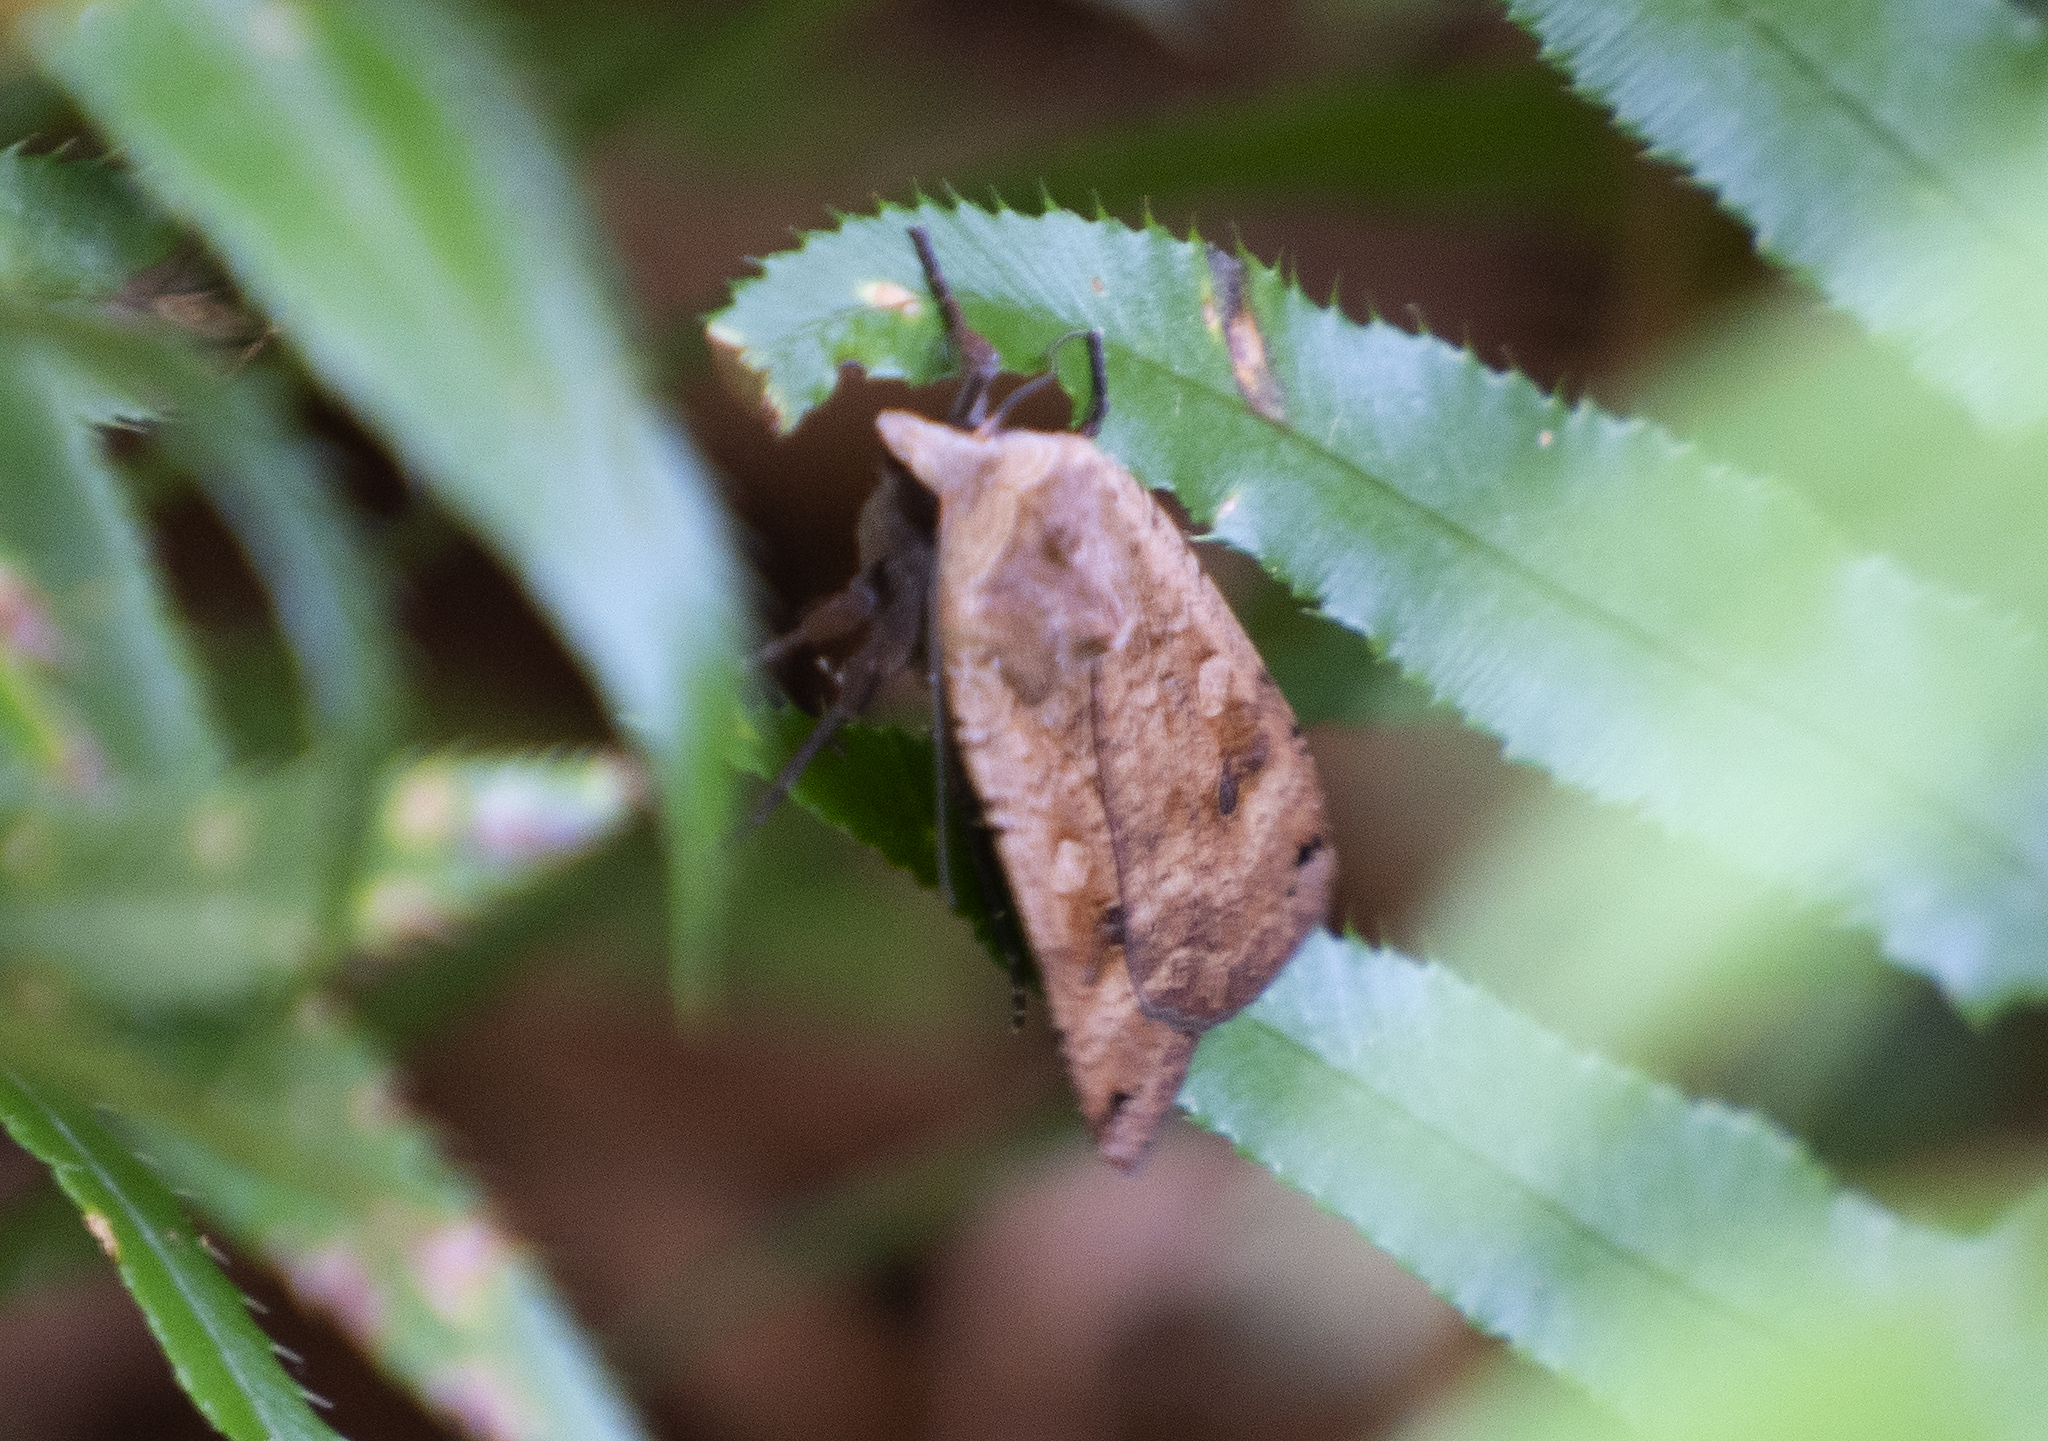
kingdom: Animalia
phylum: Arthropoda
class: Insecta
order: Lepidoptera
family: Noctuidae
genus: Noctua
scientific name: Noctua pronuba
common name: Large yellow underwing
